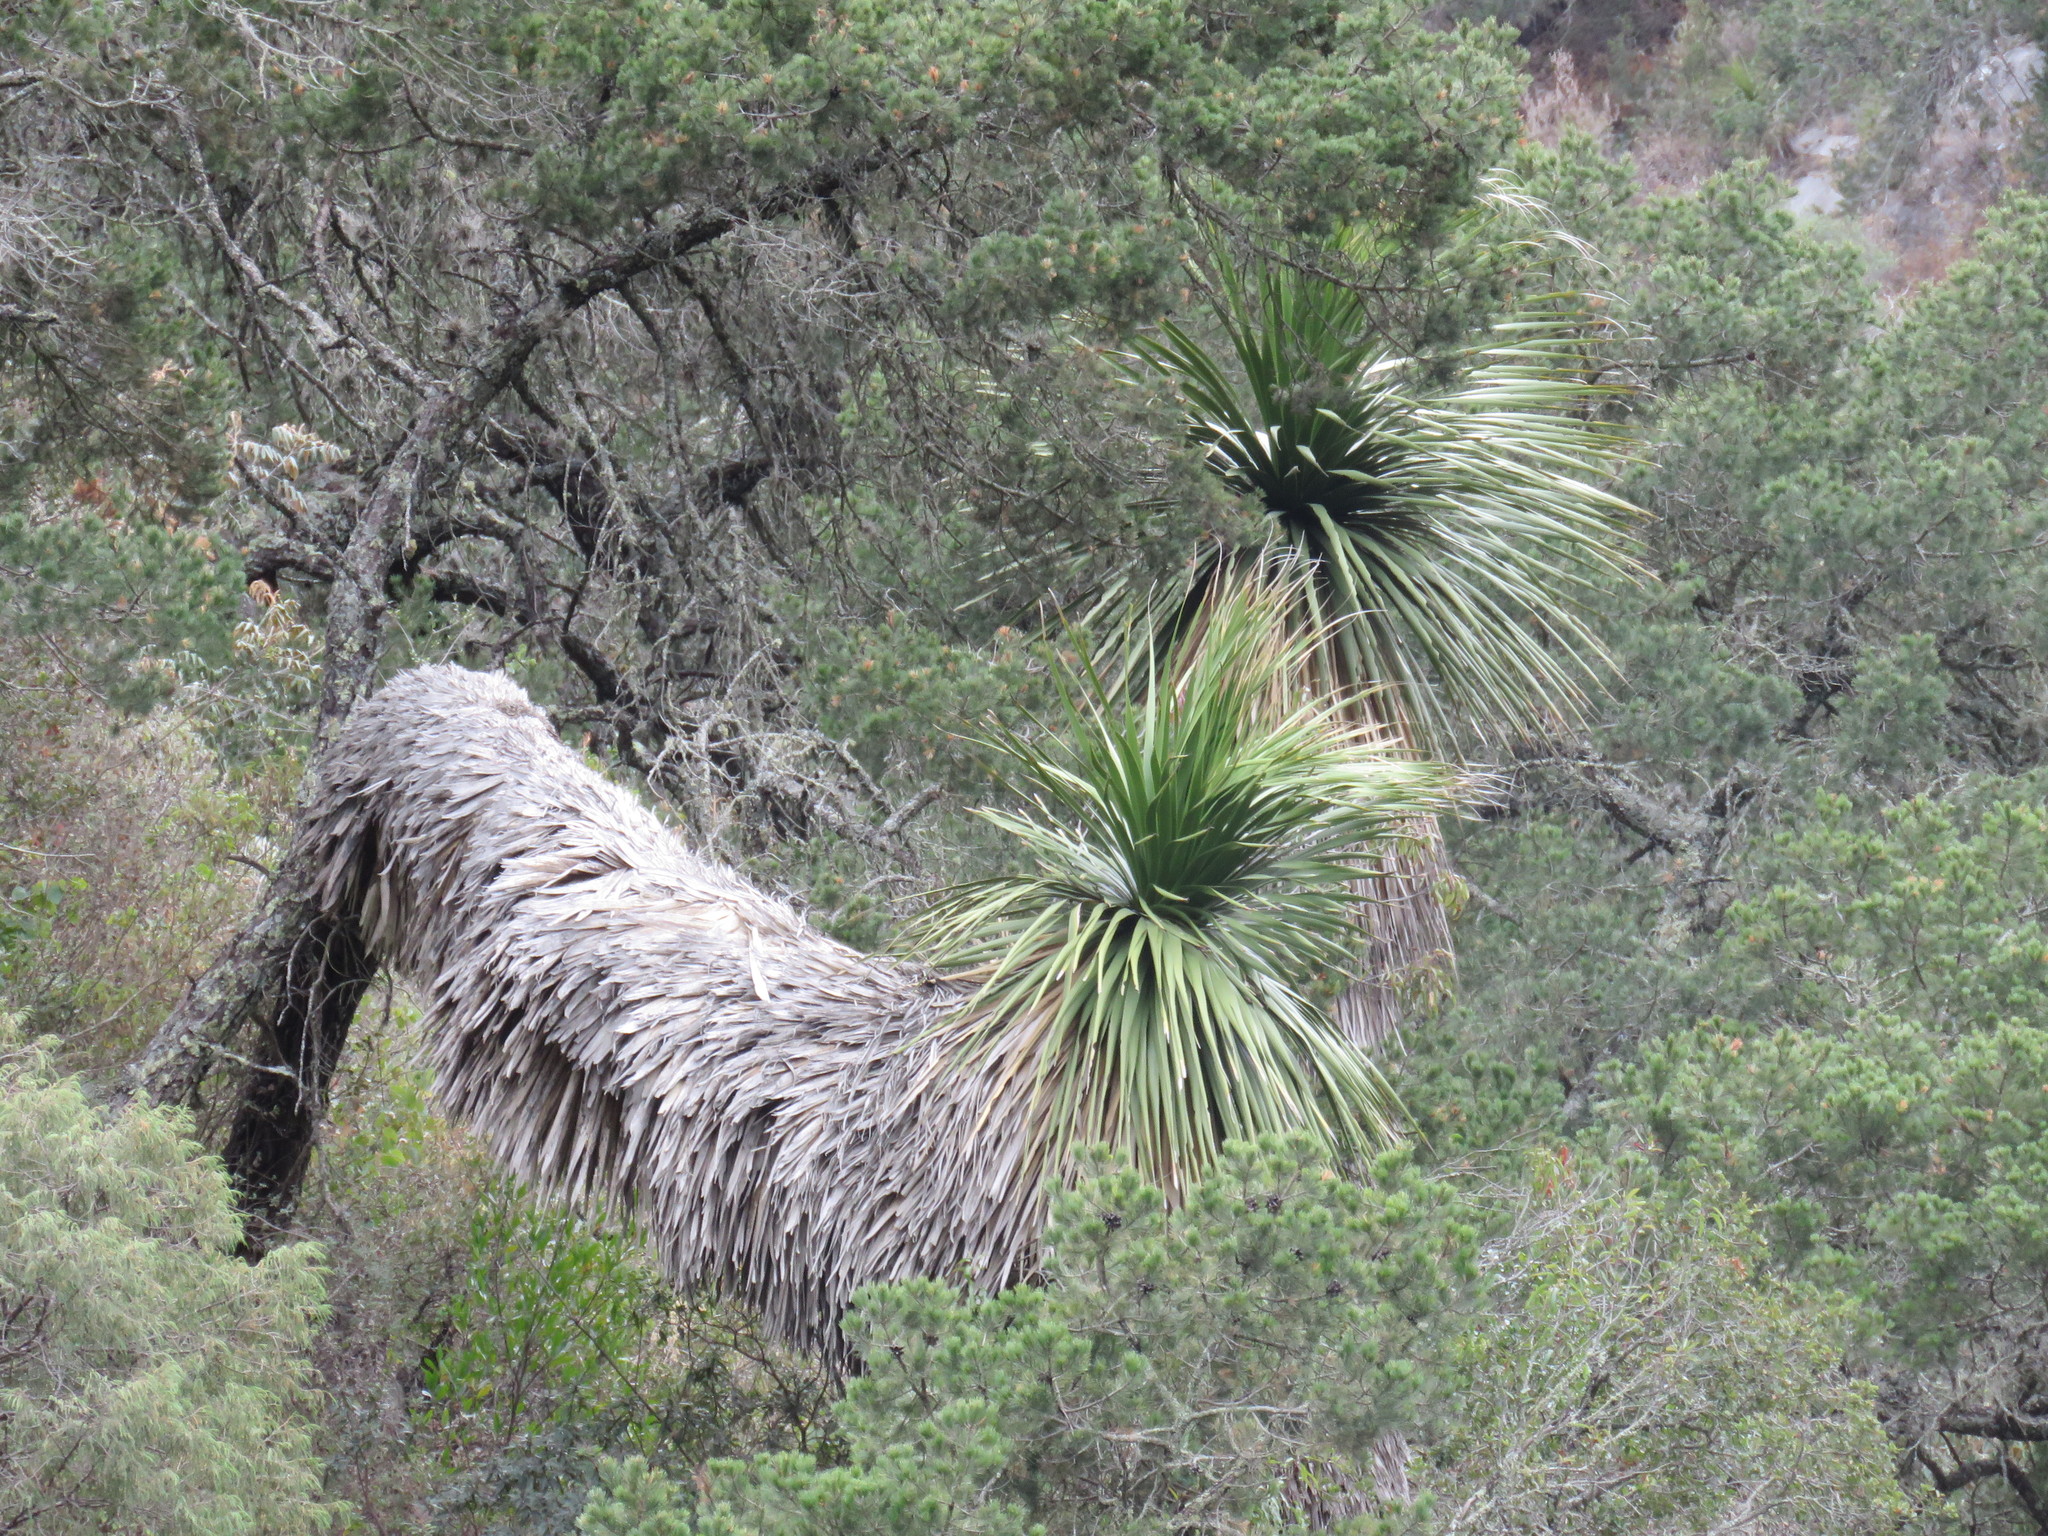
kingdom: Plantae
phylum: Tracheophyta
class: Liliopsida
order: Asparagales
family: Asparagaceae
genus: Nolina
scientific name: Nolina parviflora
